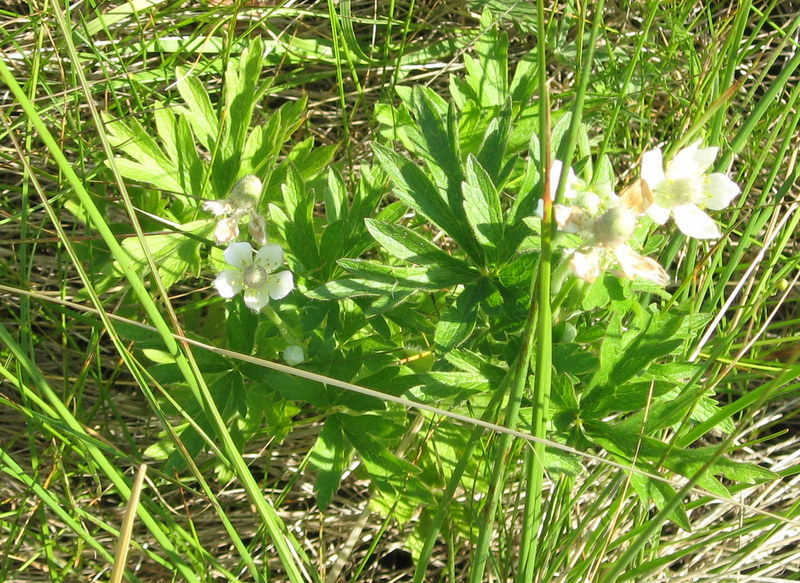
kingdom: Plantae
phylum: Tracheophyta
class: Magnoliopsida
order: Ranunculales
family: Ranunculaceae
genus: Anemone
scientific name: Anemone cylindrica
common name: Candle anemone
